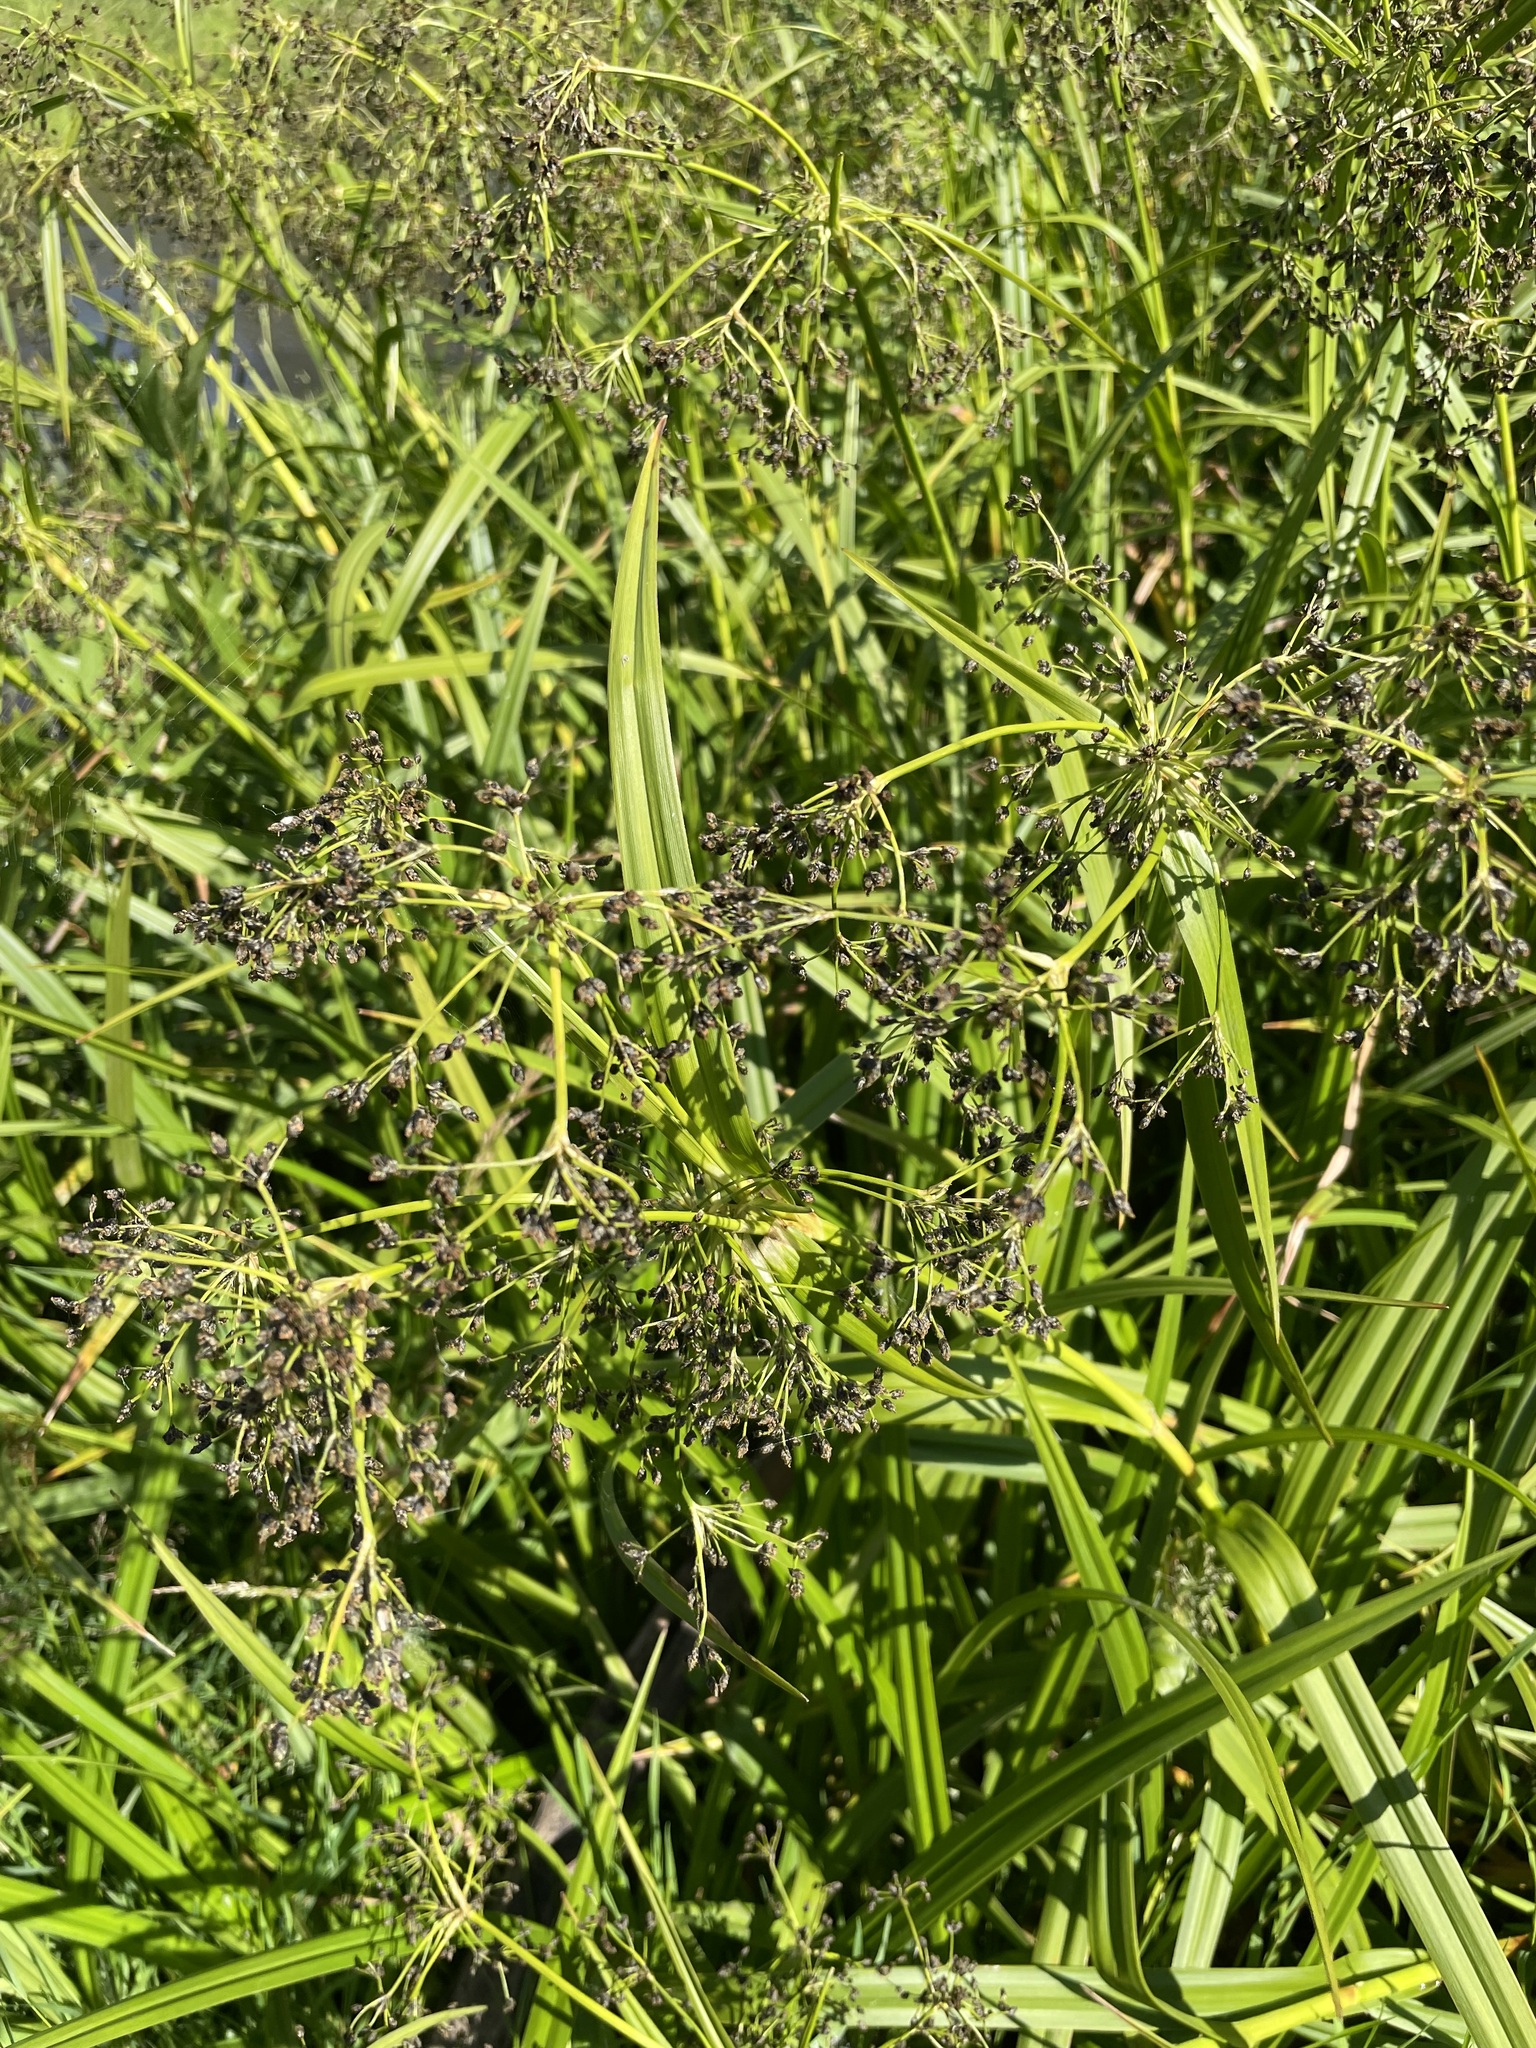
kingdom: Plantae
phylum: Tracheophyta
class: Liliopsida
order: Poales
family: Cyperaceae
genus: Scirpus
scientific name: Scirpus sylvaticus
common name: Wood club-rush
